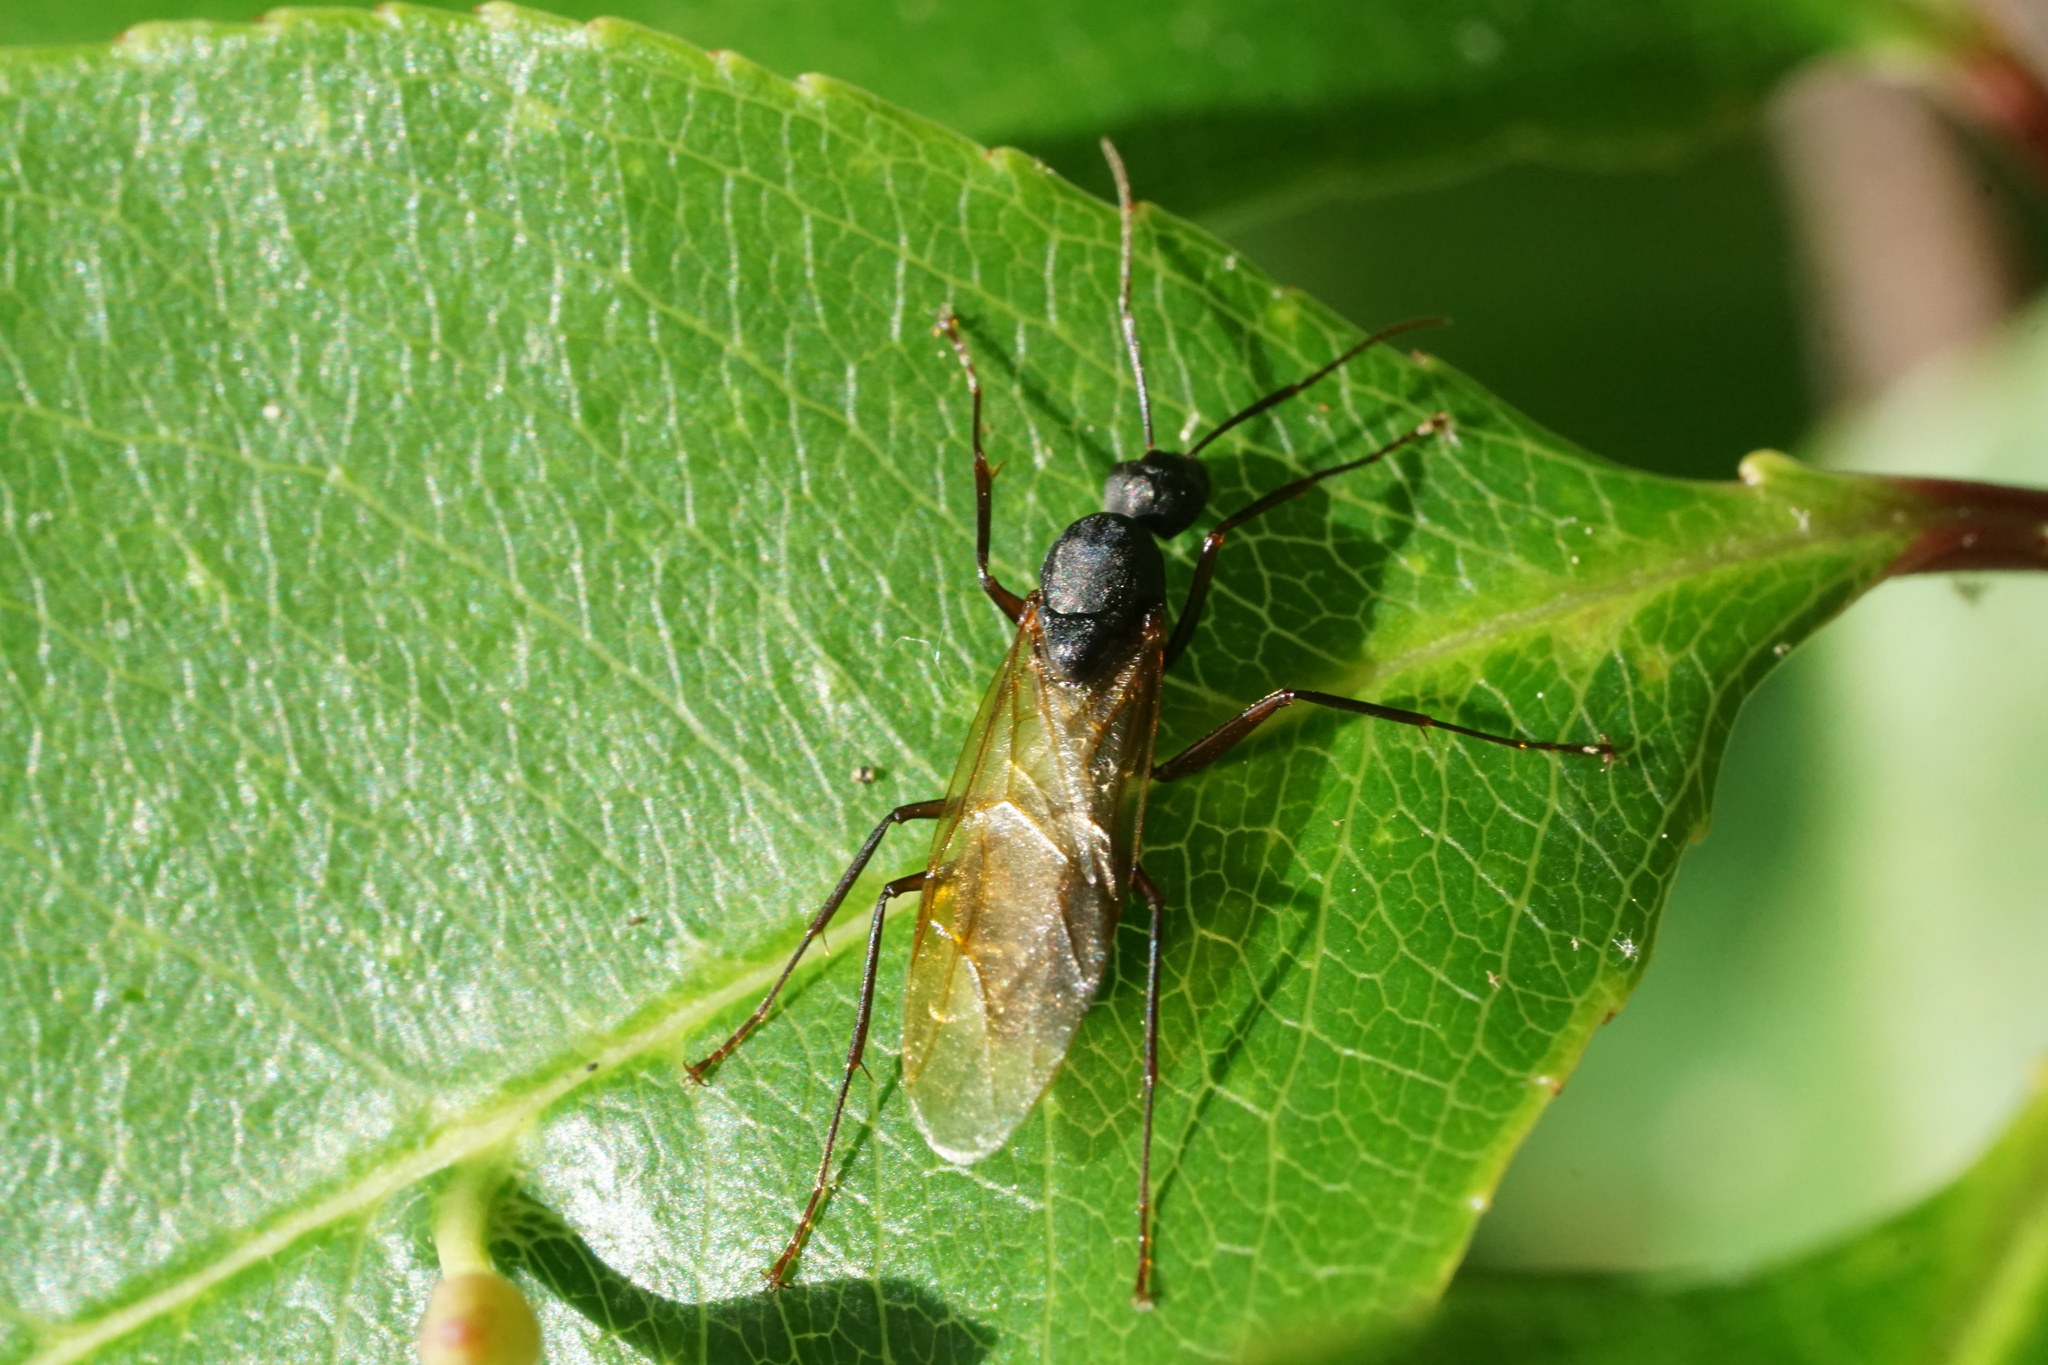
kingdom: Animalia
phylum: Arthropoda
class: Insecta
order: Hymenoptera
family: Formicidae
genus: Camponotus
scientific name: Camponotus pennsylvanicus
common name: Black carpenter ant
